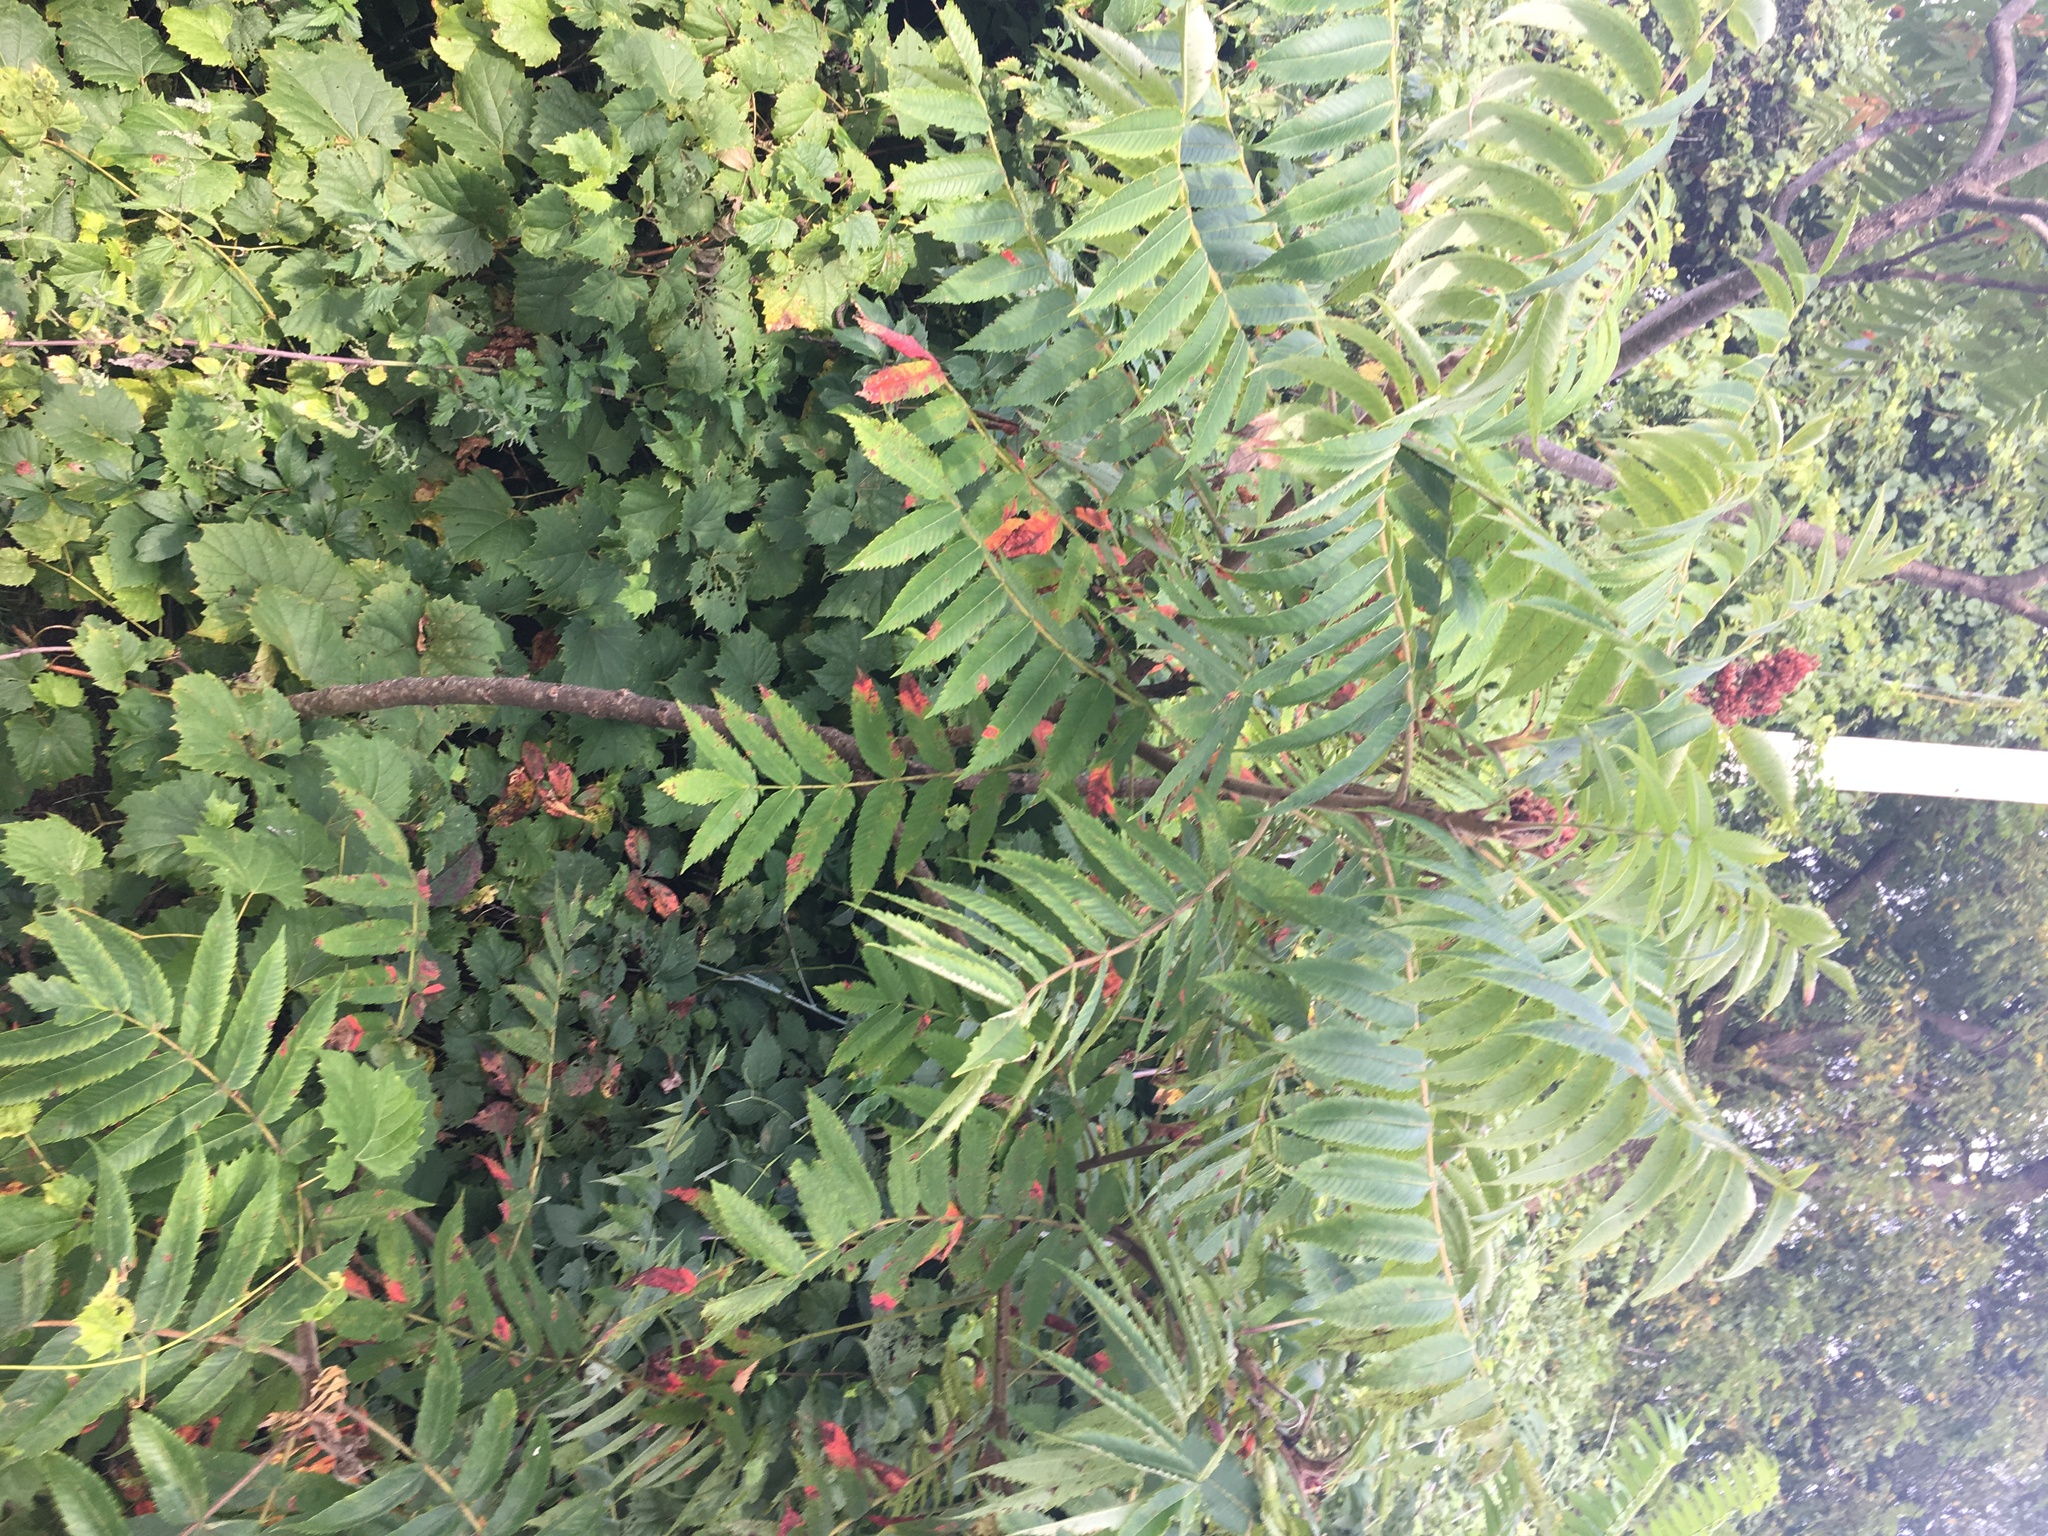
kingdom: Plantae
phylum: Tracheophyta
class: Magnoliopsida
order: Sapindales
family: Anacardiaceae
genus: Rhus
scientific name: Rhus typhina
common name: Staghorn sumac
